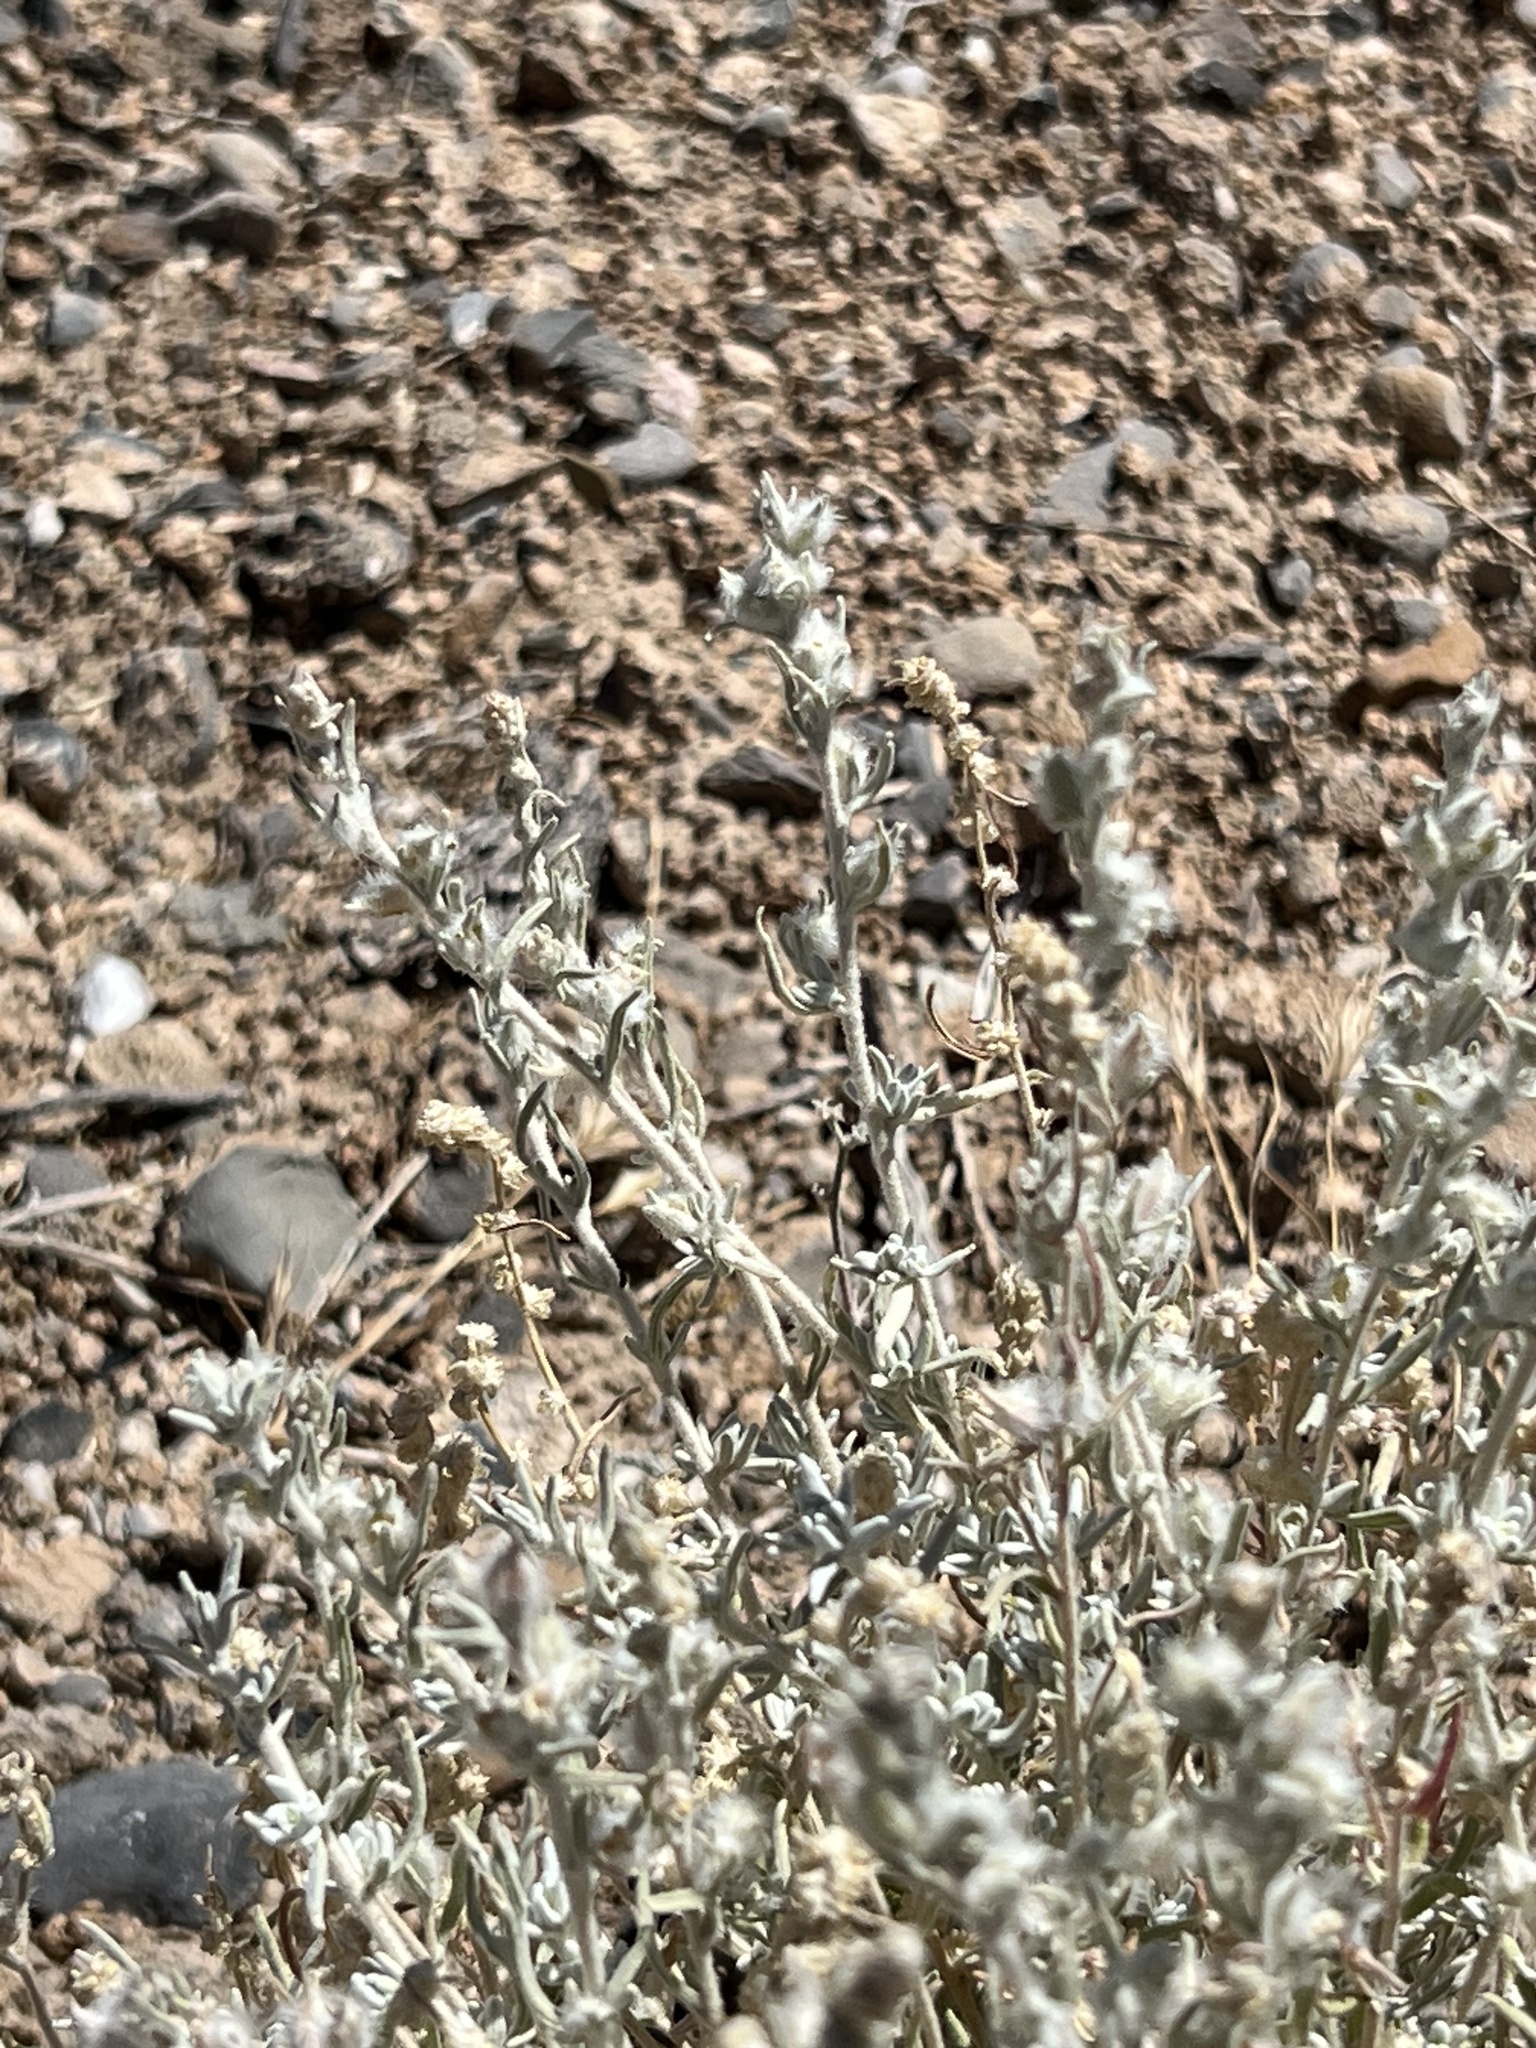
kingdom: Plantae
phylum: Tracheophyta
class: Magnoliopsida
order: Caryophyllales
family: Amaranthaceae
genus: Krascheninnikovia
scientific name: Krascheninnikovia lanata
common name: Winterfat
